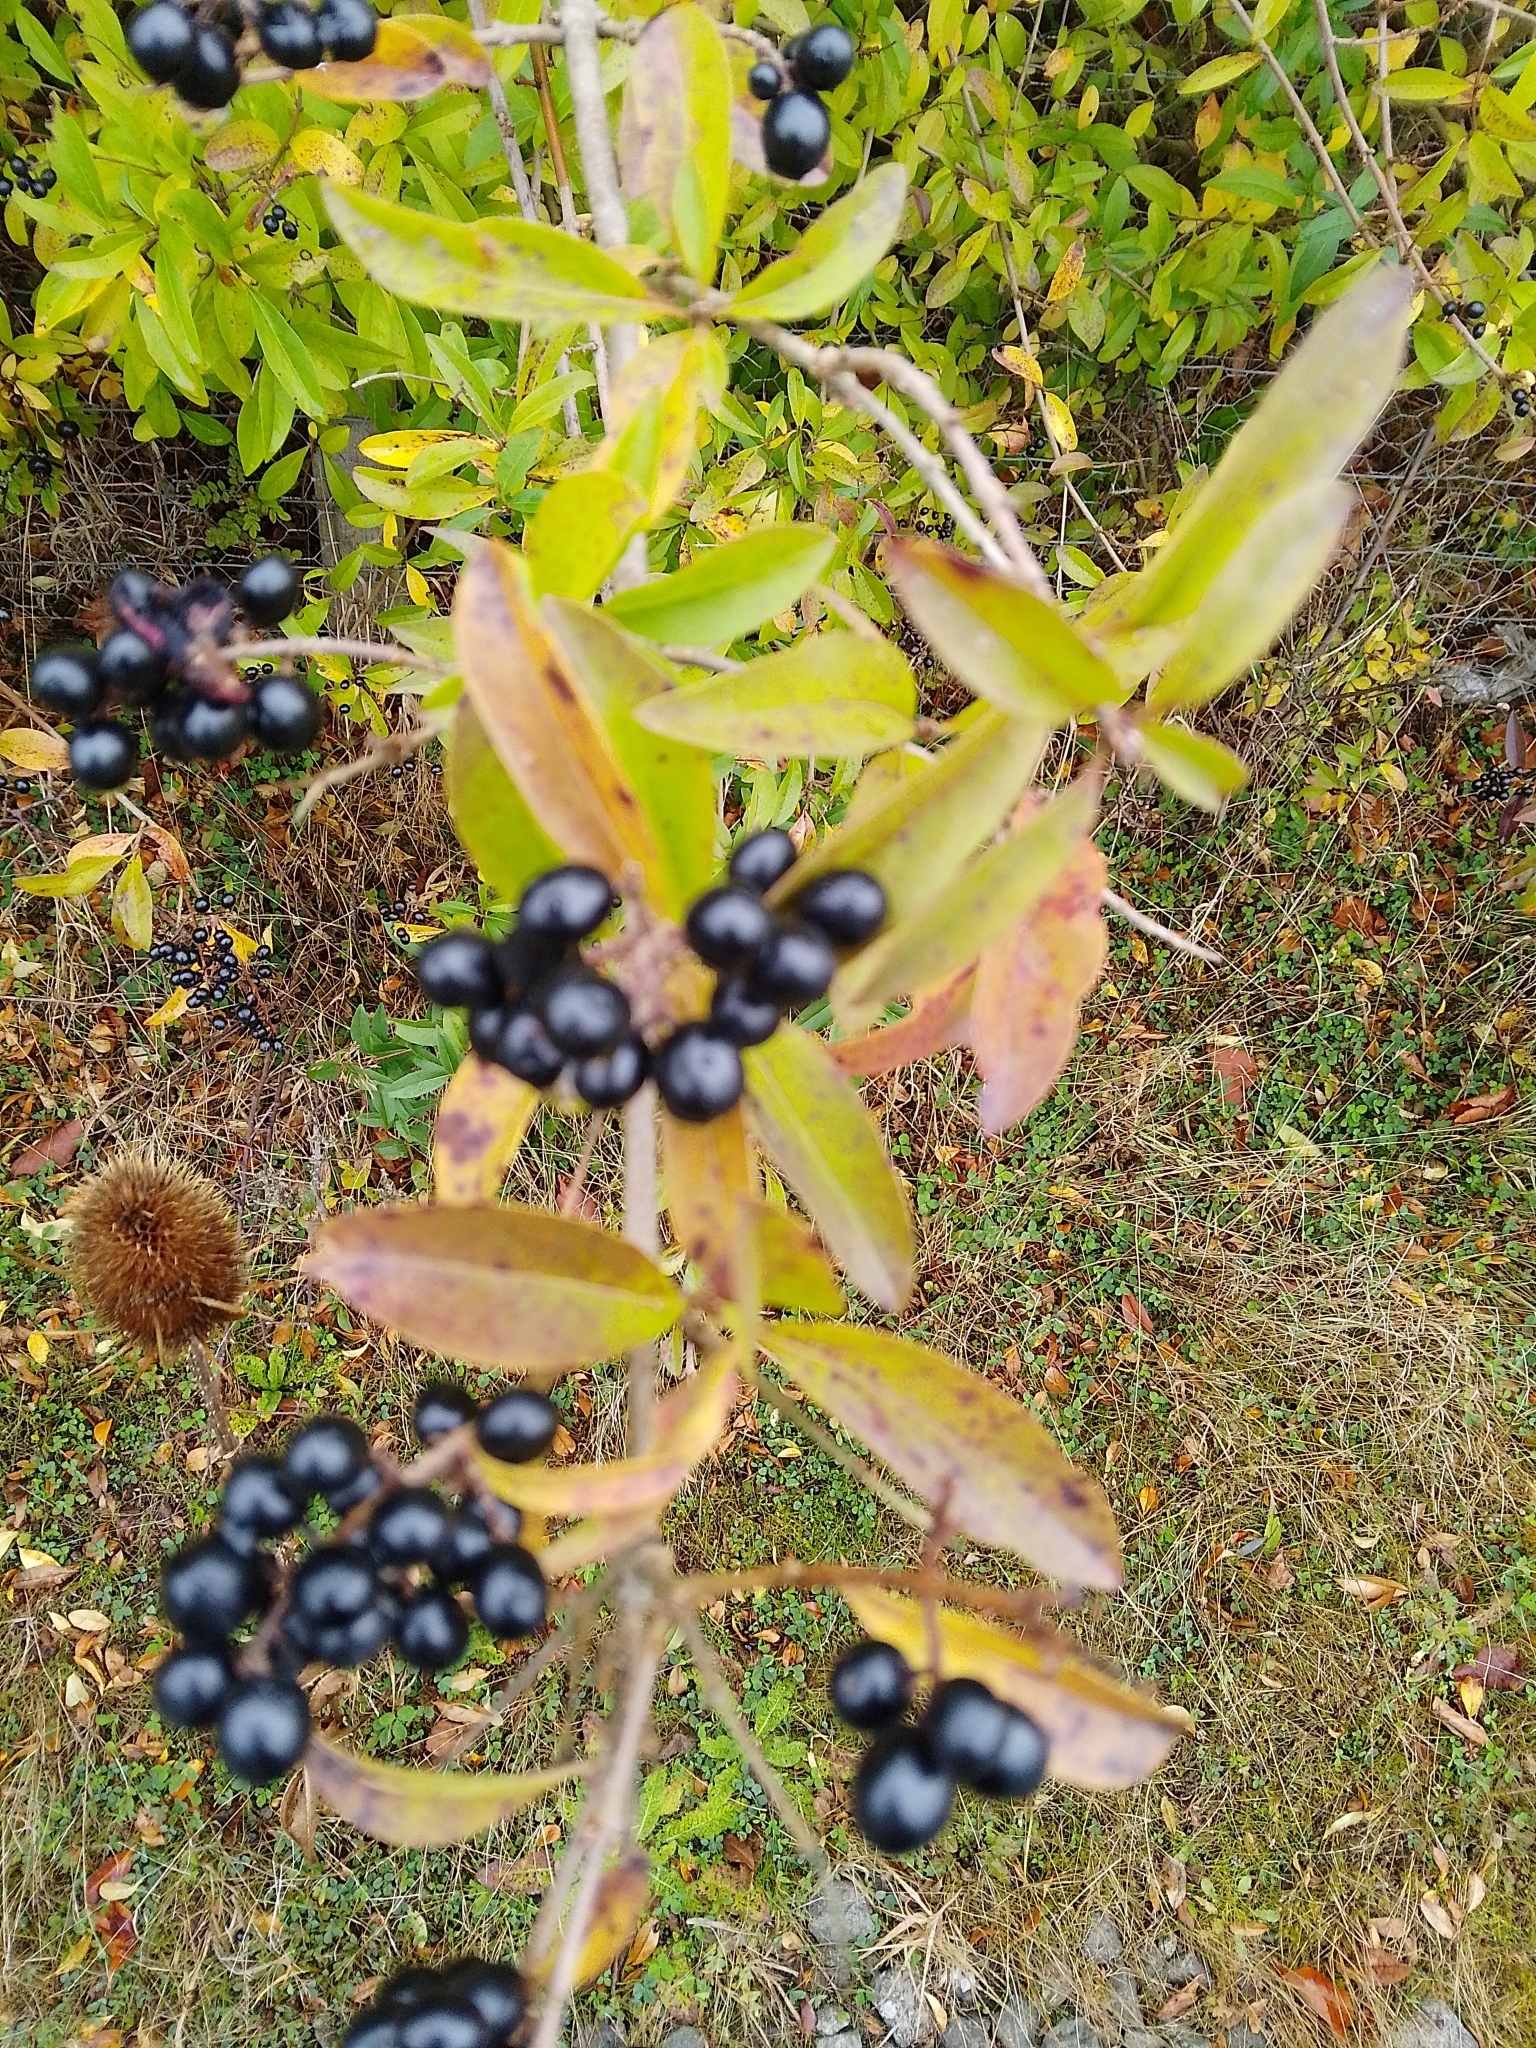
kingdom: Plantae
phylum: Tracheophyta
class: Magnoliopsida
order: Lamiales
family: Oleaceae
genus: Ligustrum
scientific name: Ligustrum vulgare
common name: Wild privet
